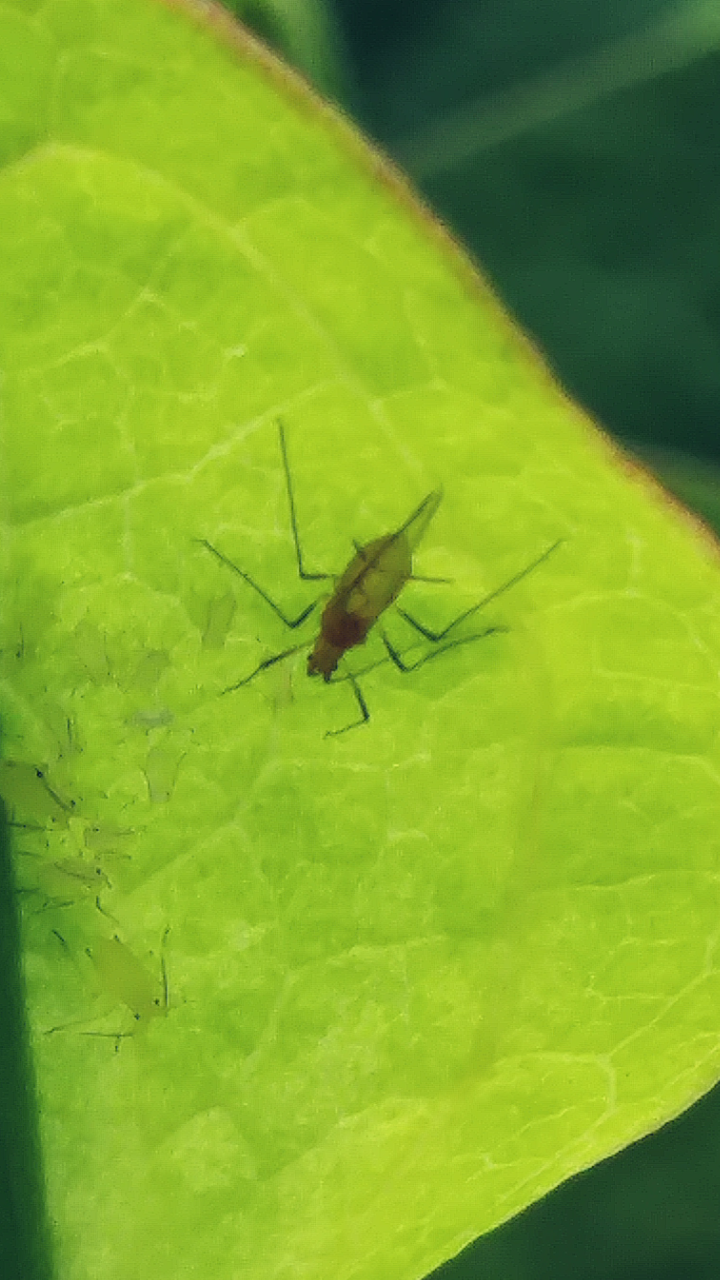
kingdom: Animalia
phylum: Arthropoda
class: Insecta
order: Hemiptera
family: Aphididae
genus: Illinoia
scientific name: Illinoia liriodendri
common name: Tuliptree aphid
